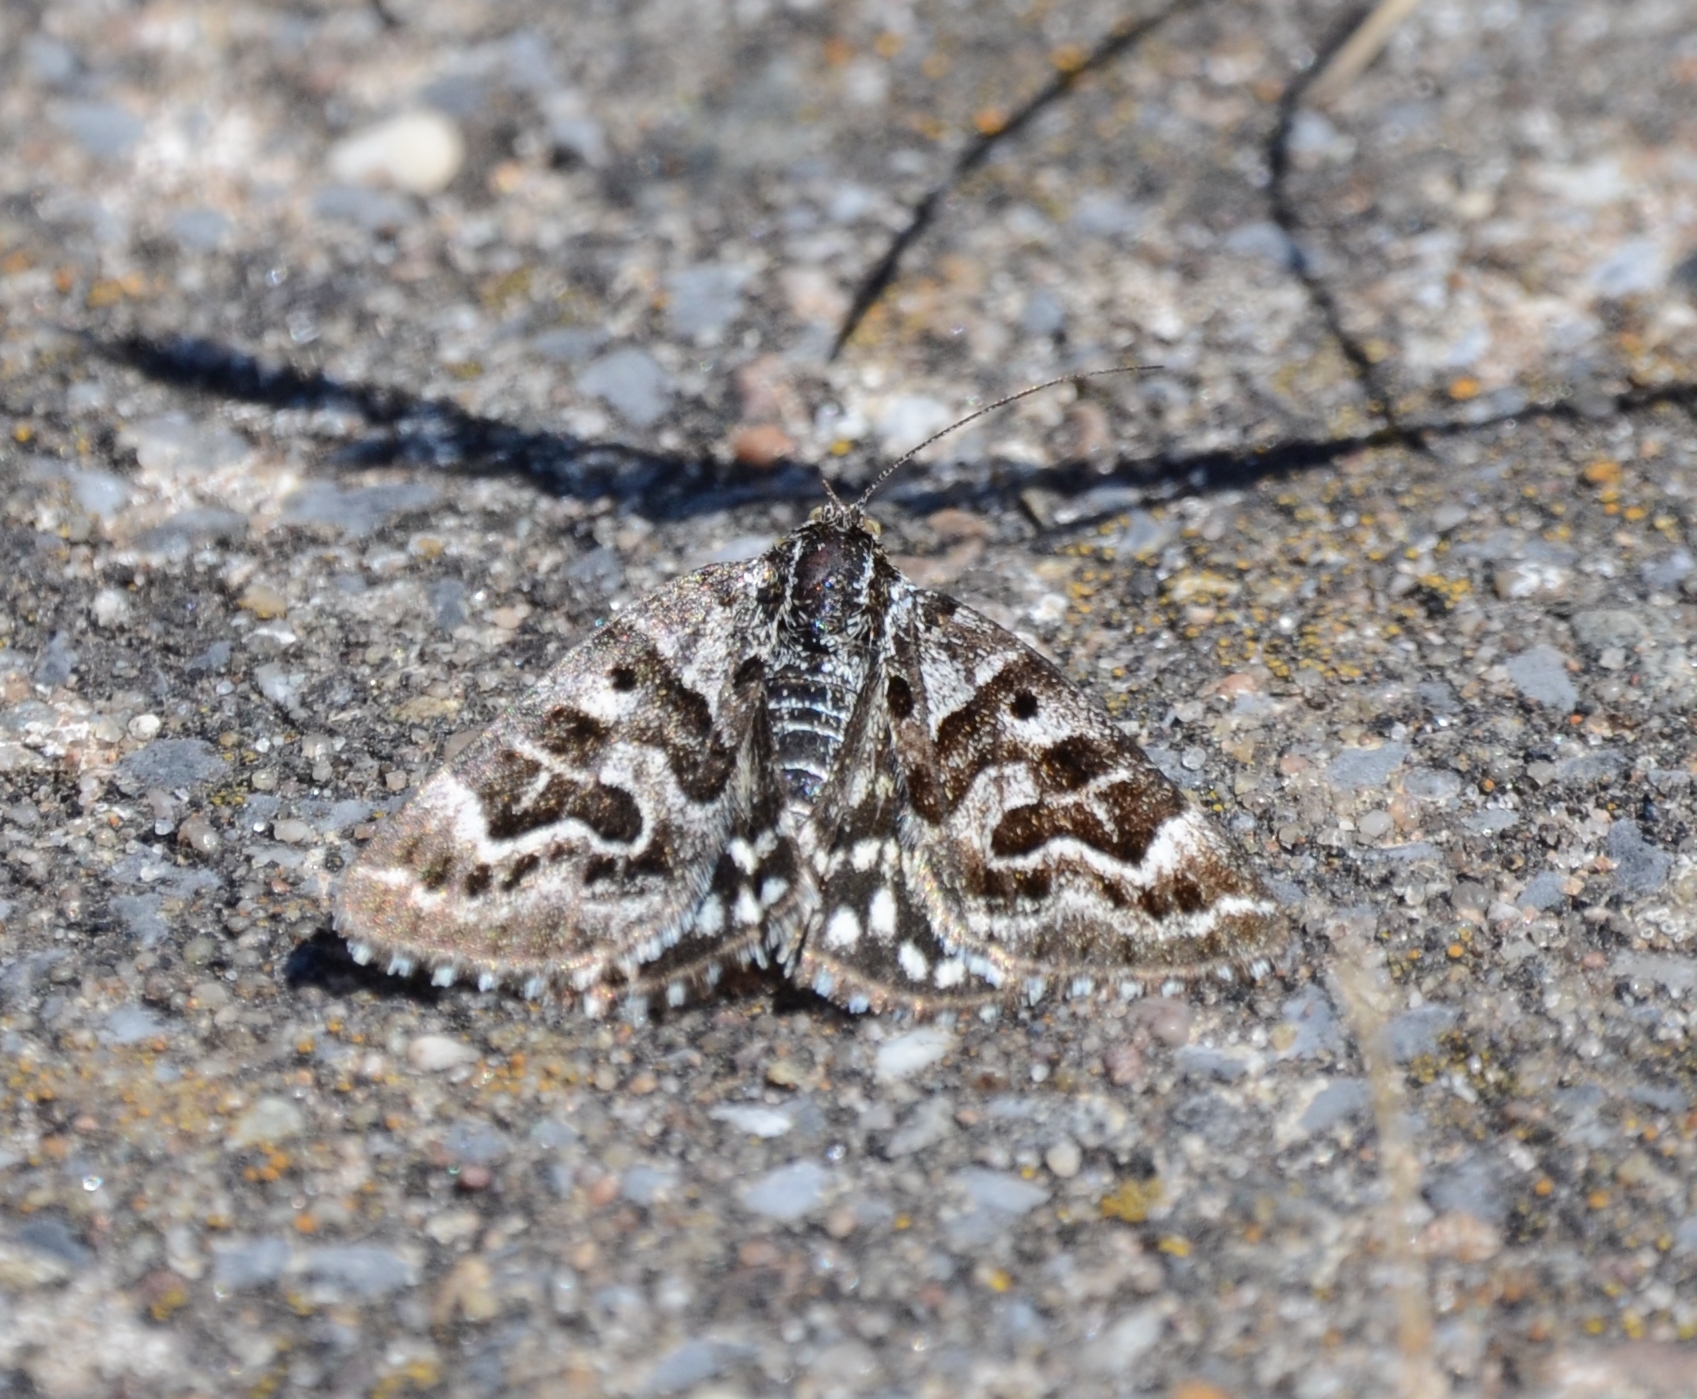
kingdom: Animalia
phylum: Arthropoda
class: Insecta
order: Lepidoptera
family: Erebidae
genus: Callistege
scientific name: Callistege mi
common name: Mother shipton
